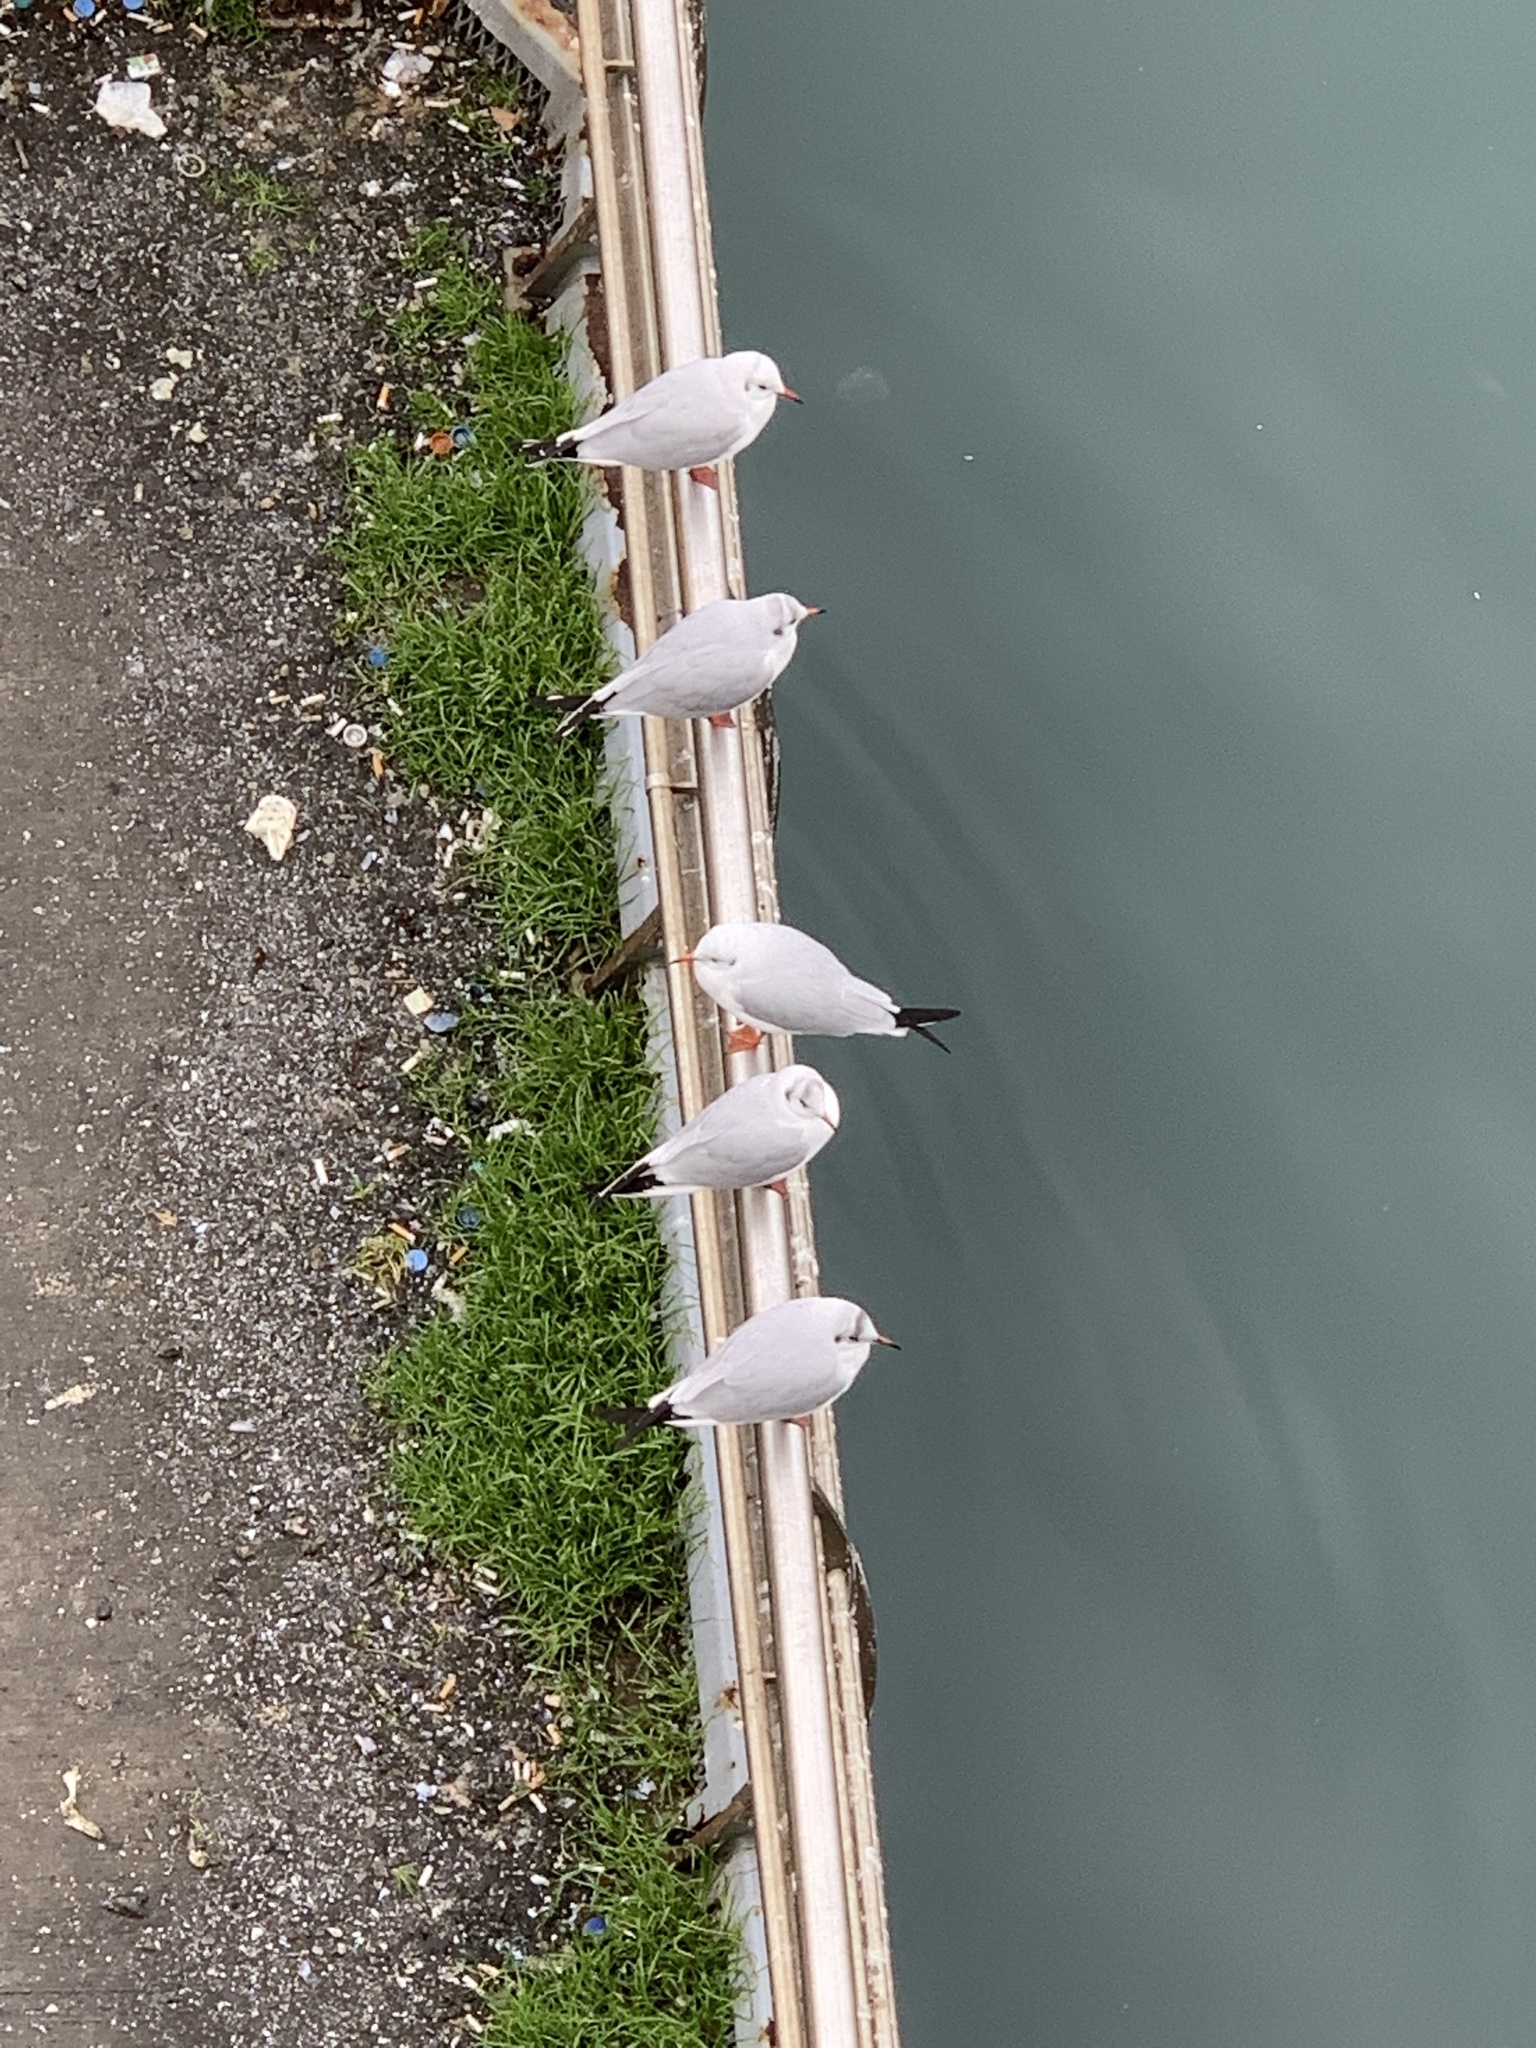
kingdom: Animalia
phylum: Chordata
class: Aves
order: Charadriiformes
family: Laridae
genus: Chroicocephalus
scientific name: Chroicocephalus ridibundus
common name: Black-headed gull
